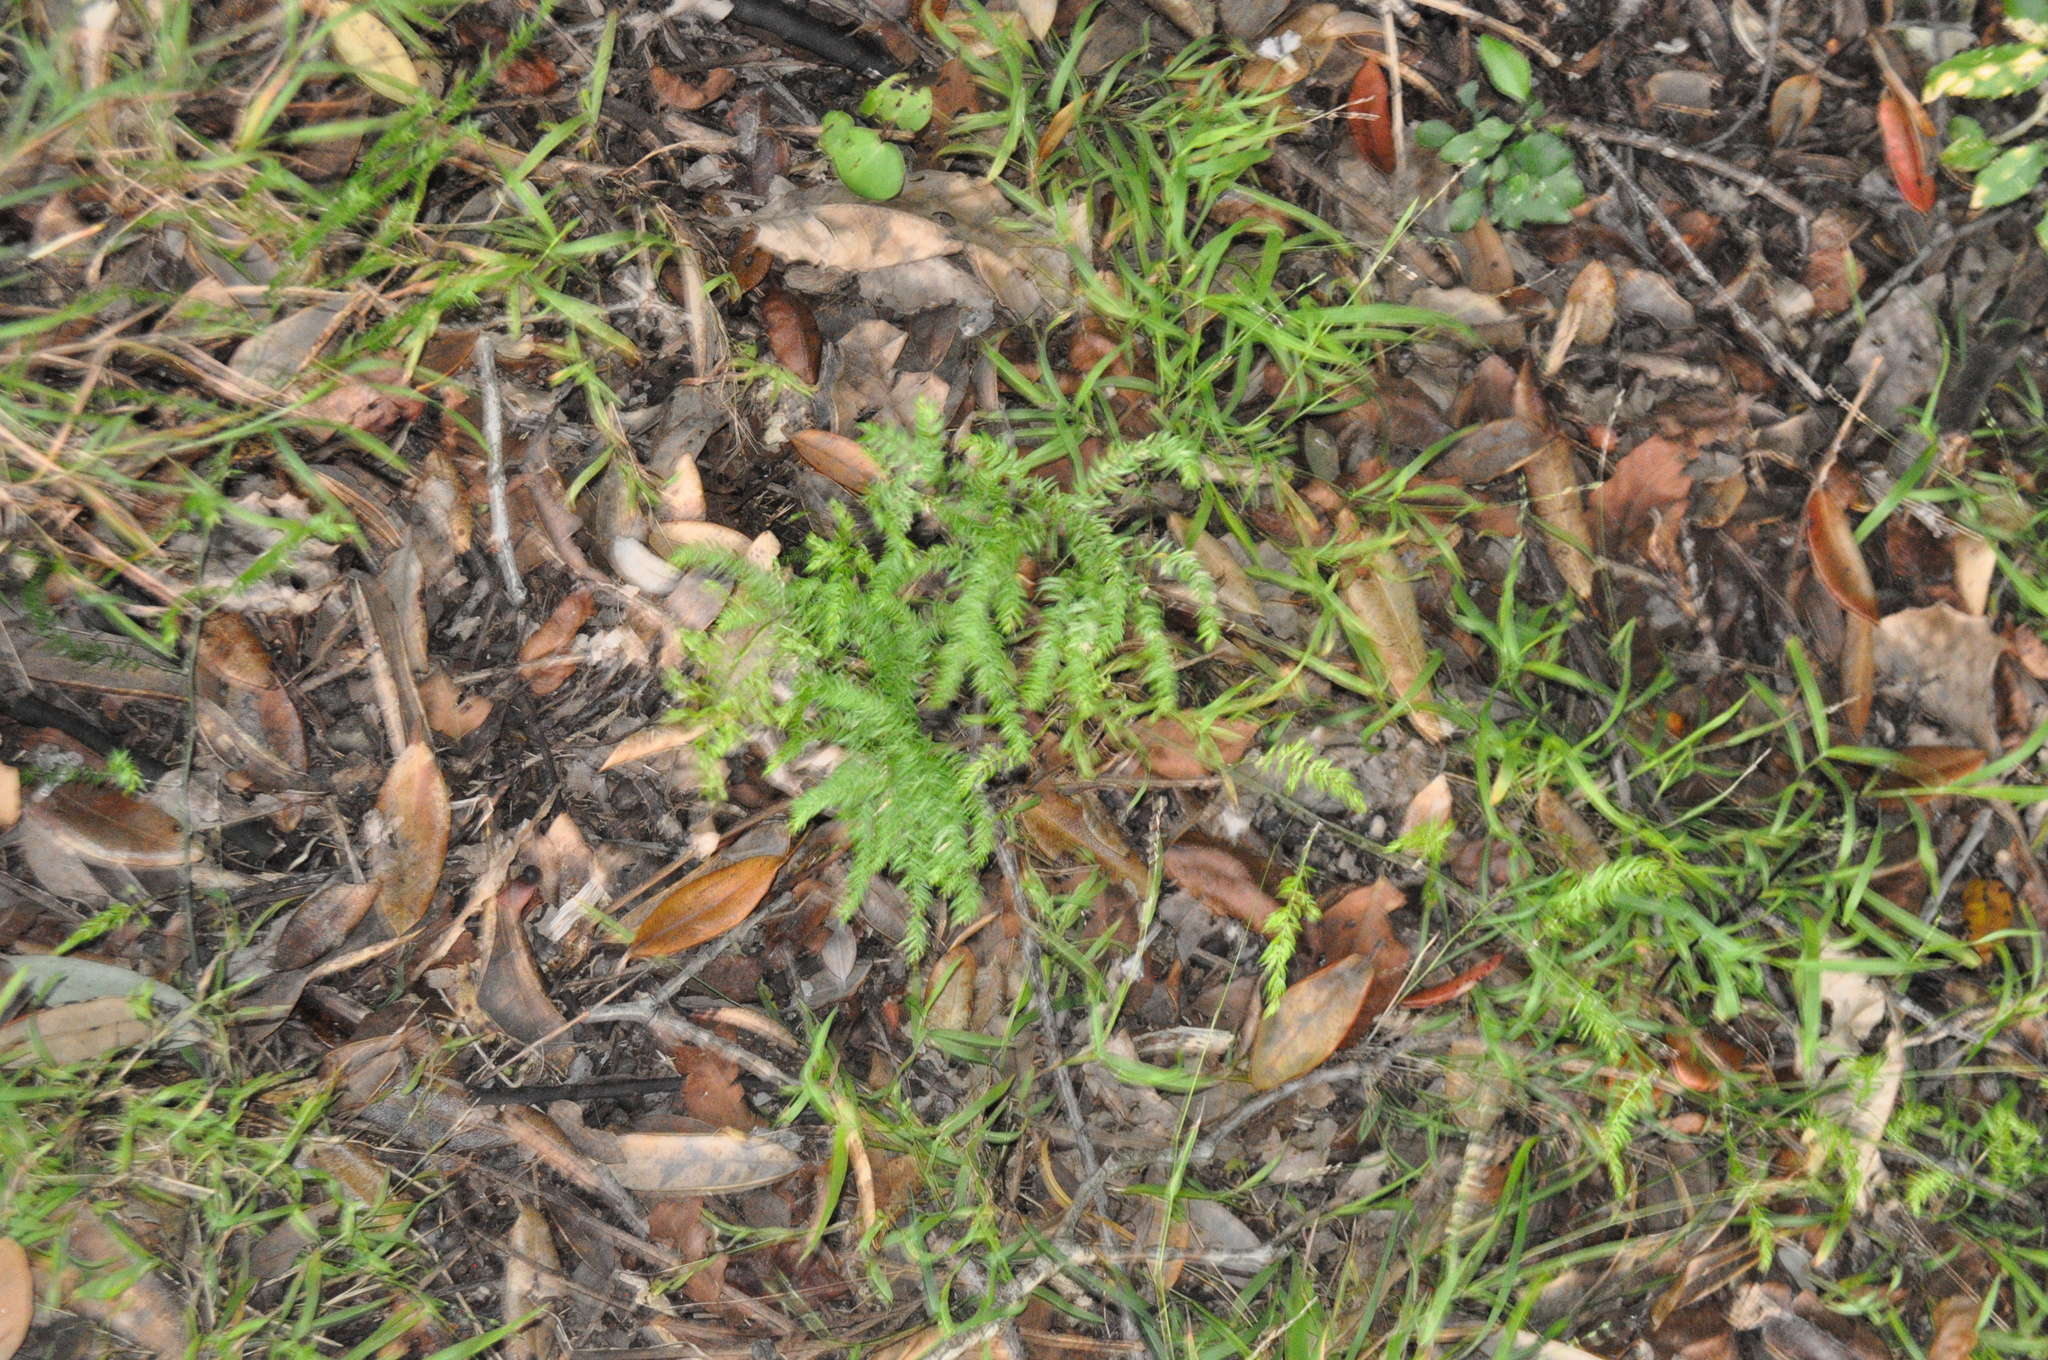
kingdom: Plantae
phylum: Tracheophyta
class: Liliopsida
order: Asparagales
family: Asparagaceae
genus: Asparagus
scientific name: Asparagus scandens
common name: Asparagus-fern
